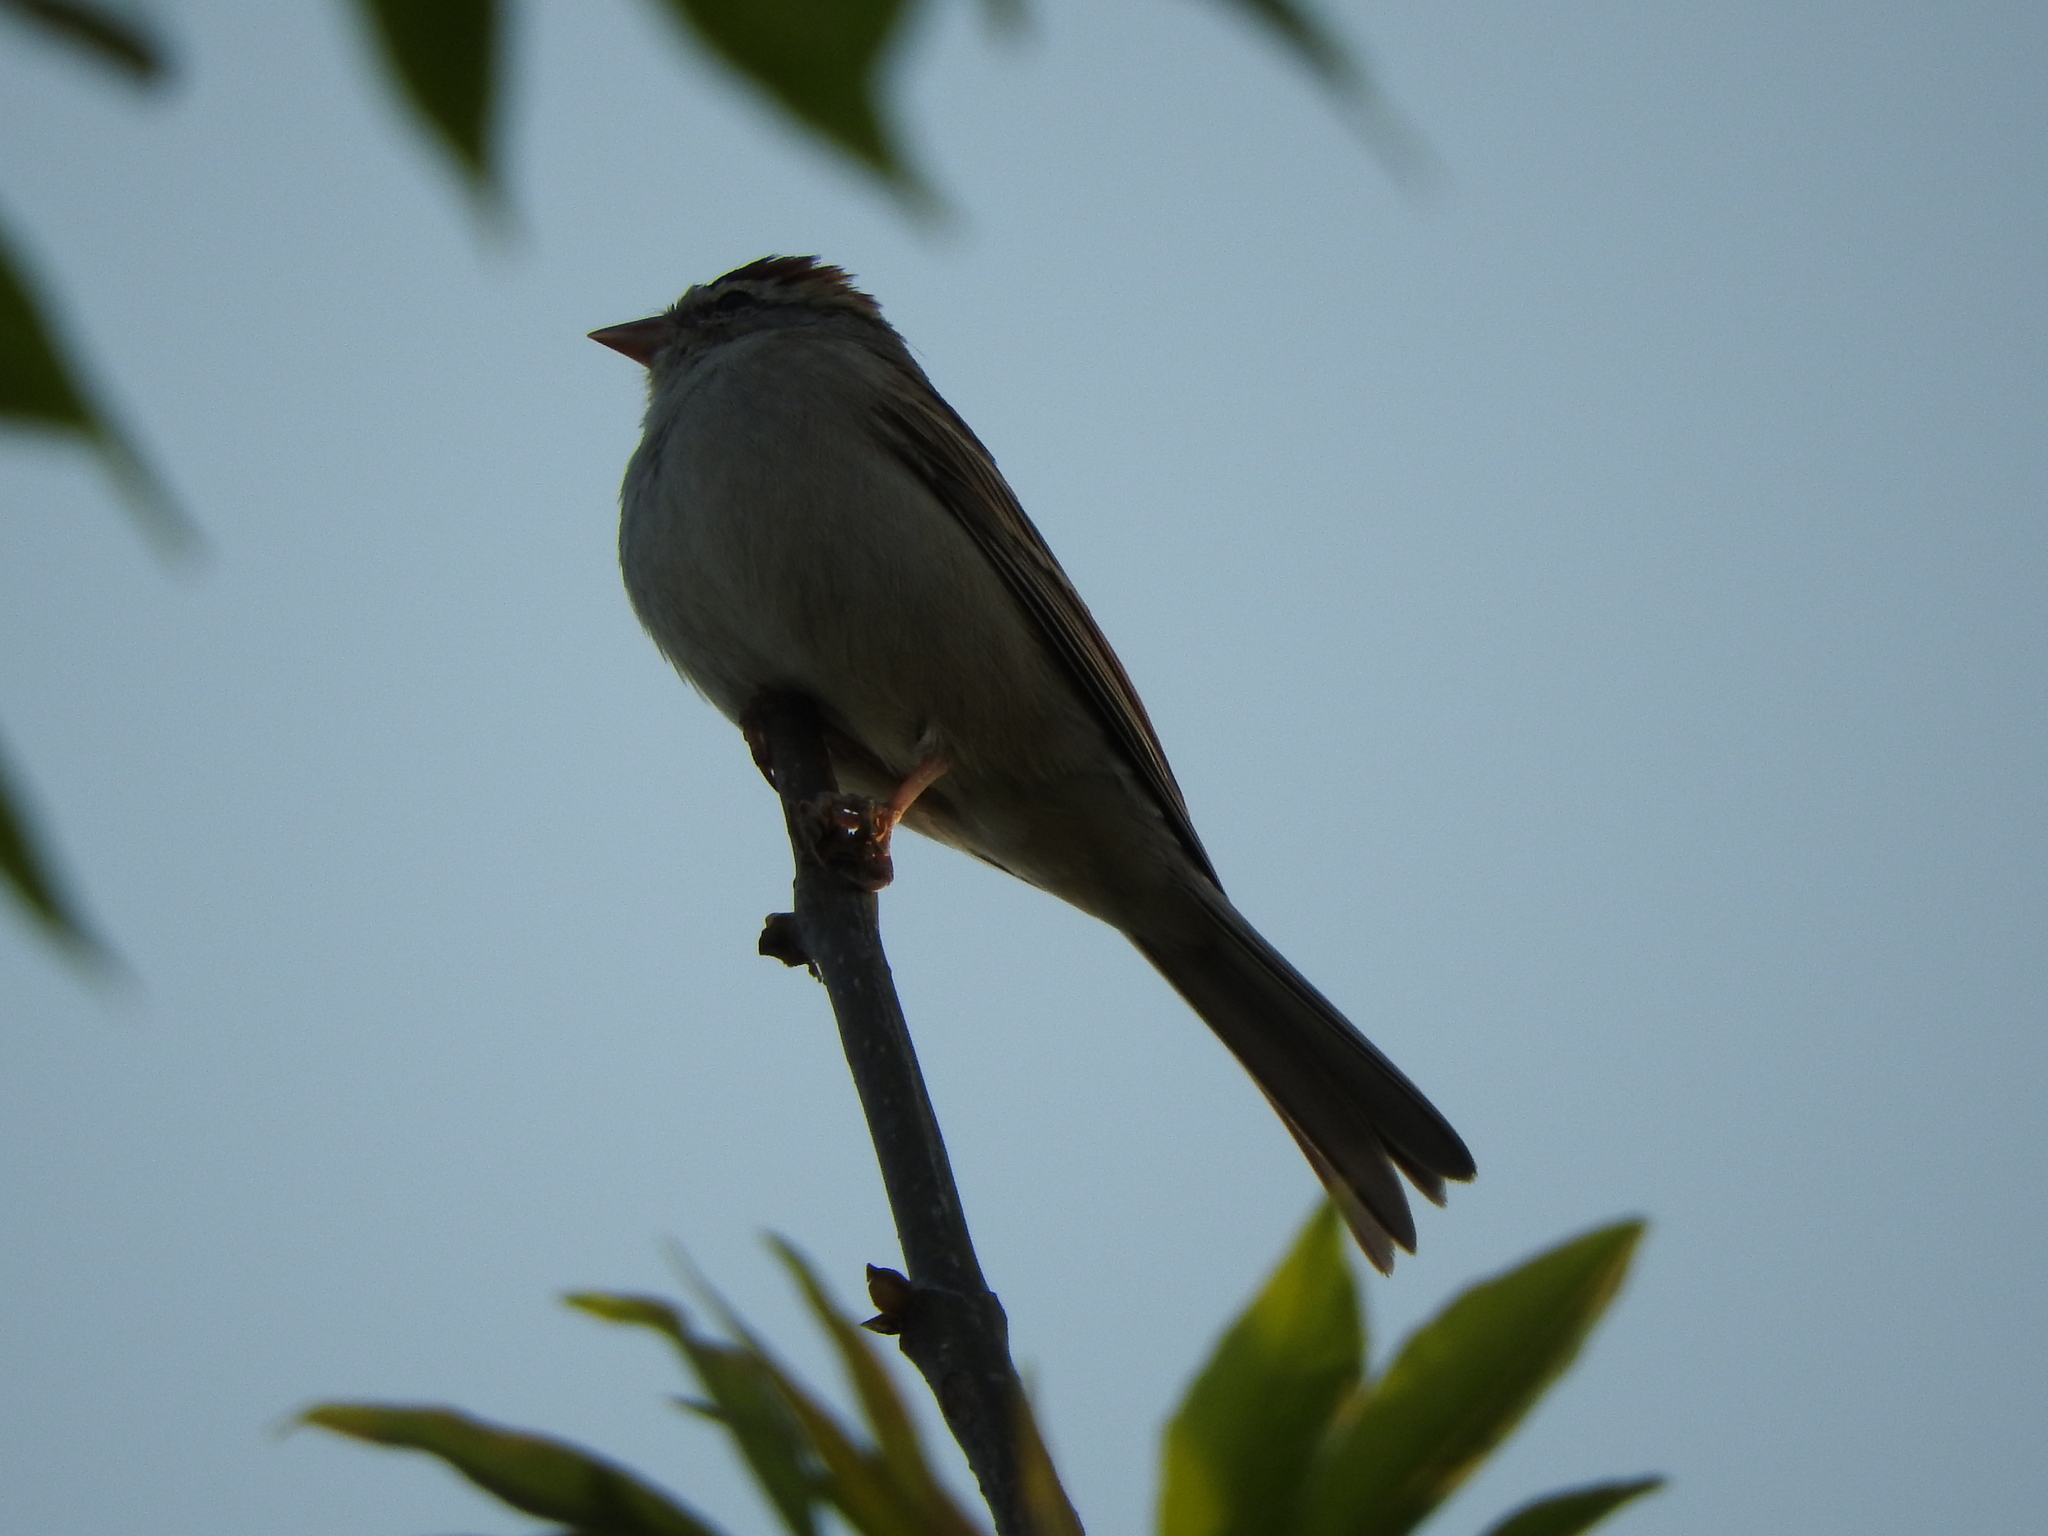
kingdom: Animalia
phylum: Chordata
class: Aves
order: Passeriformes
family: Passerellidae
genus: Spizella
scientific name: Spizella passerina
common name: Chipping sparrow
